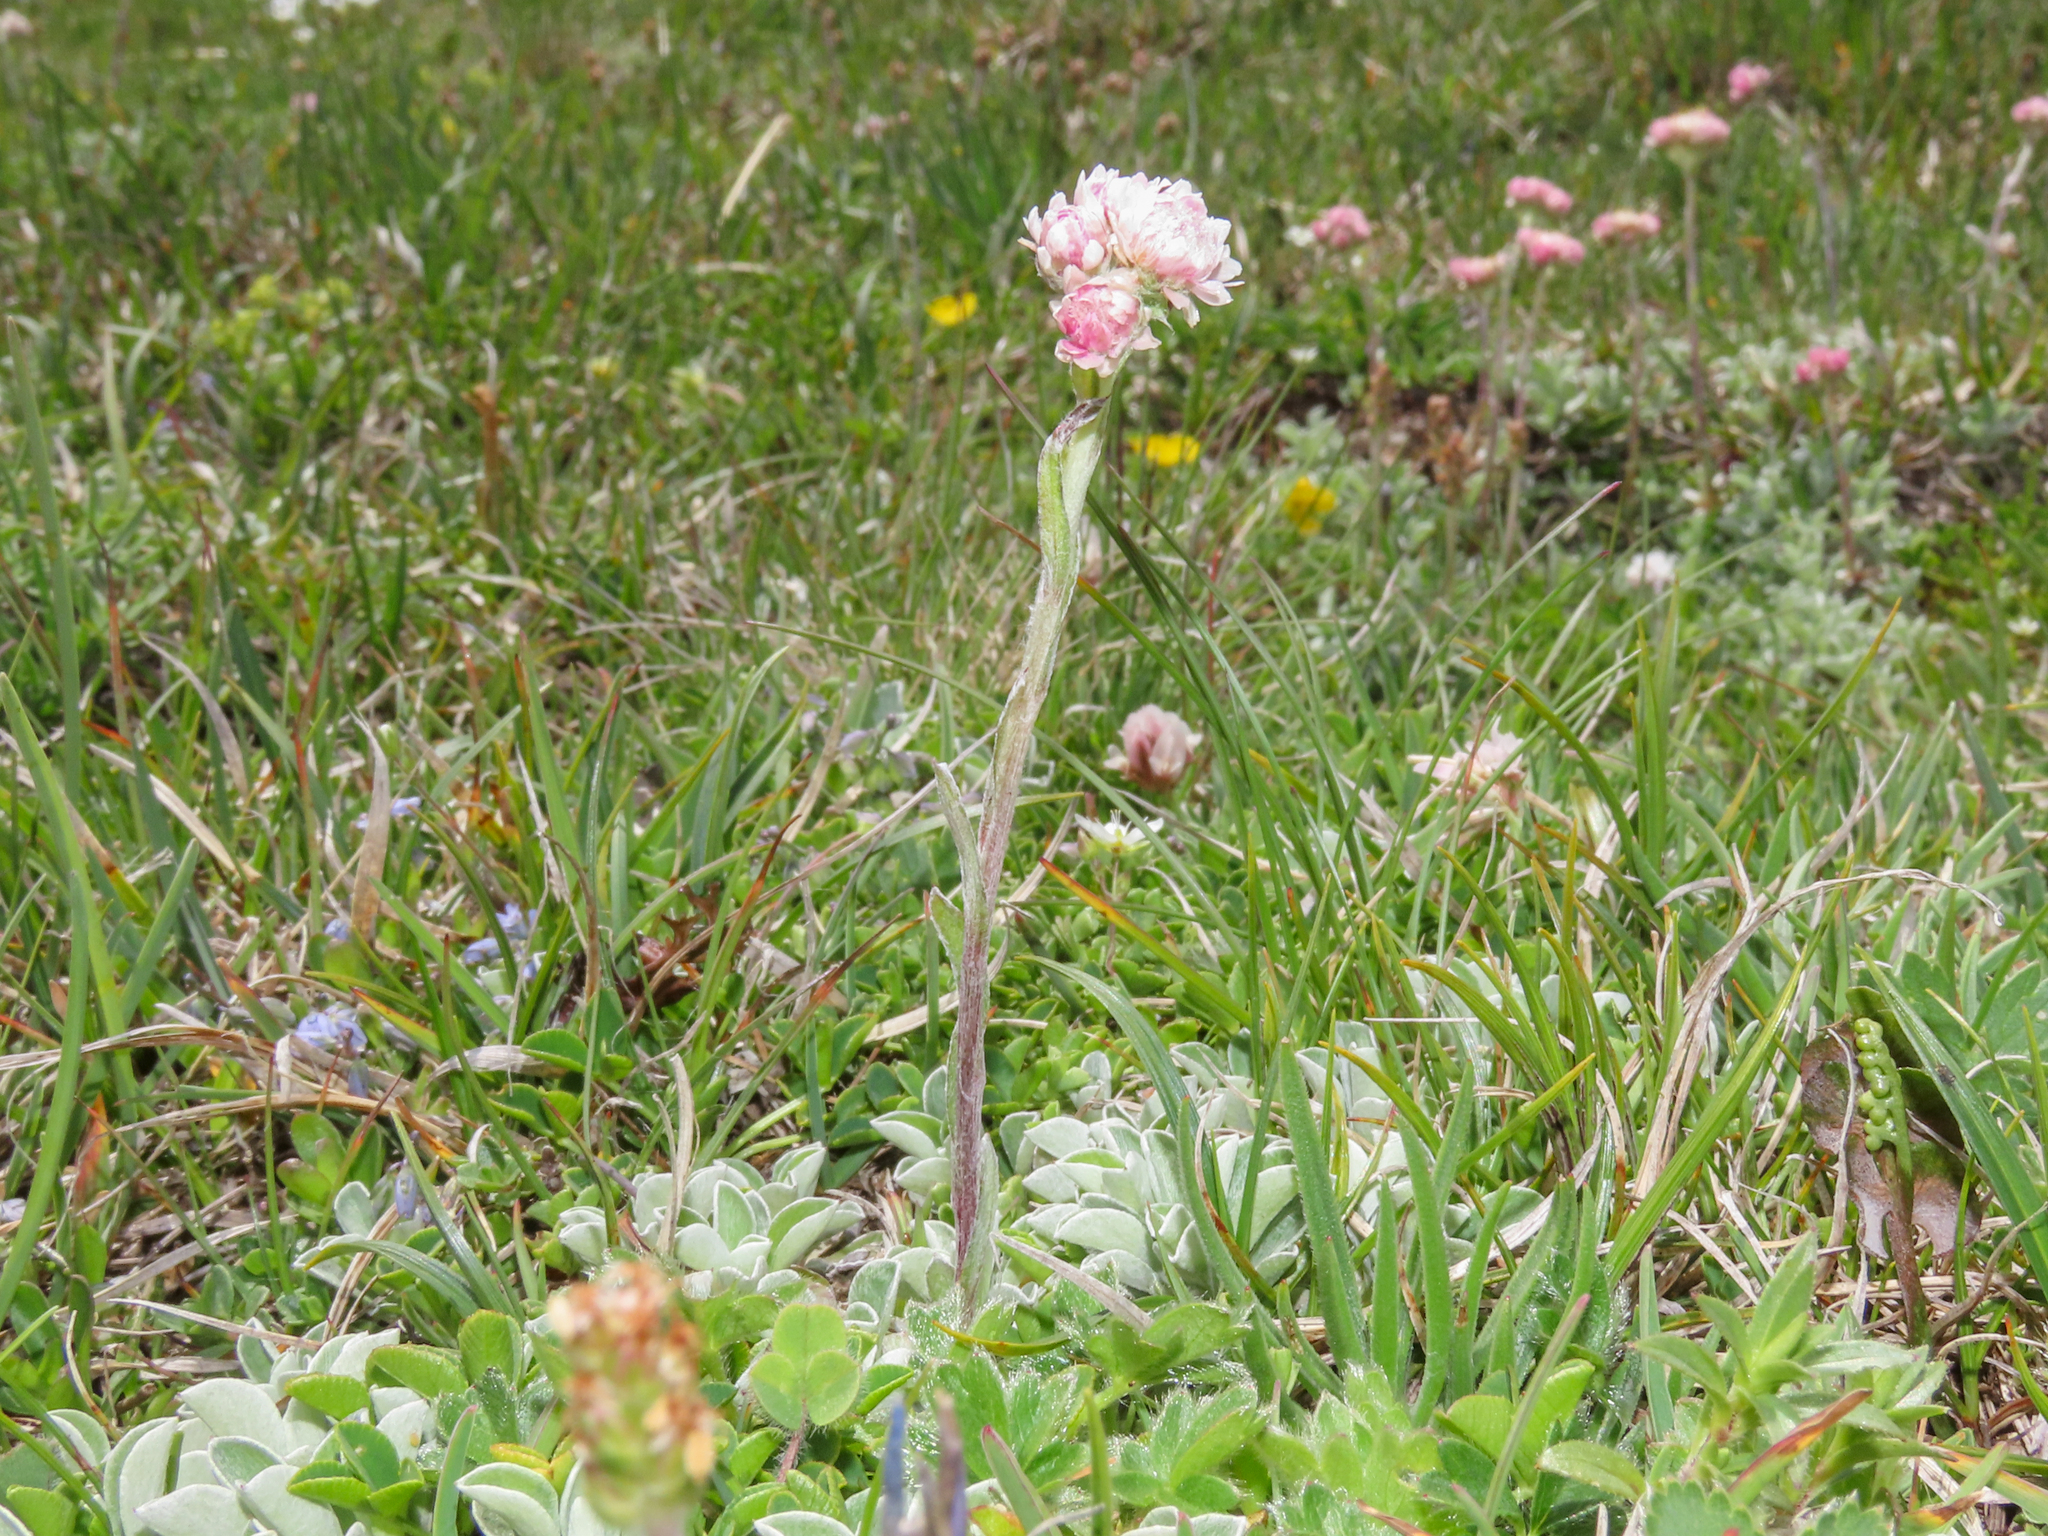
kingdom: Plantae
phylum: Tracheophyta
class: Magnoliopsida
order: Asterales
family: Asteraceae
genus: Antennaria
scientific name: Antennaria dioica
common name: Mountain everlasting
